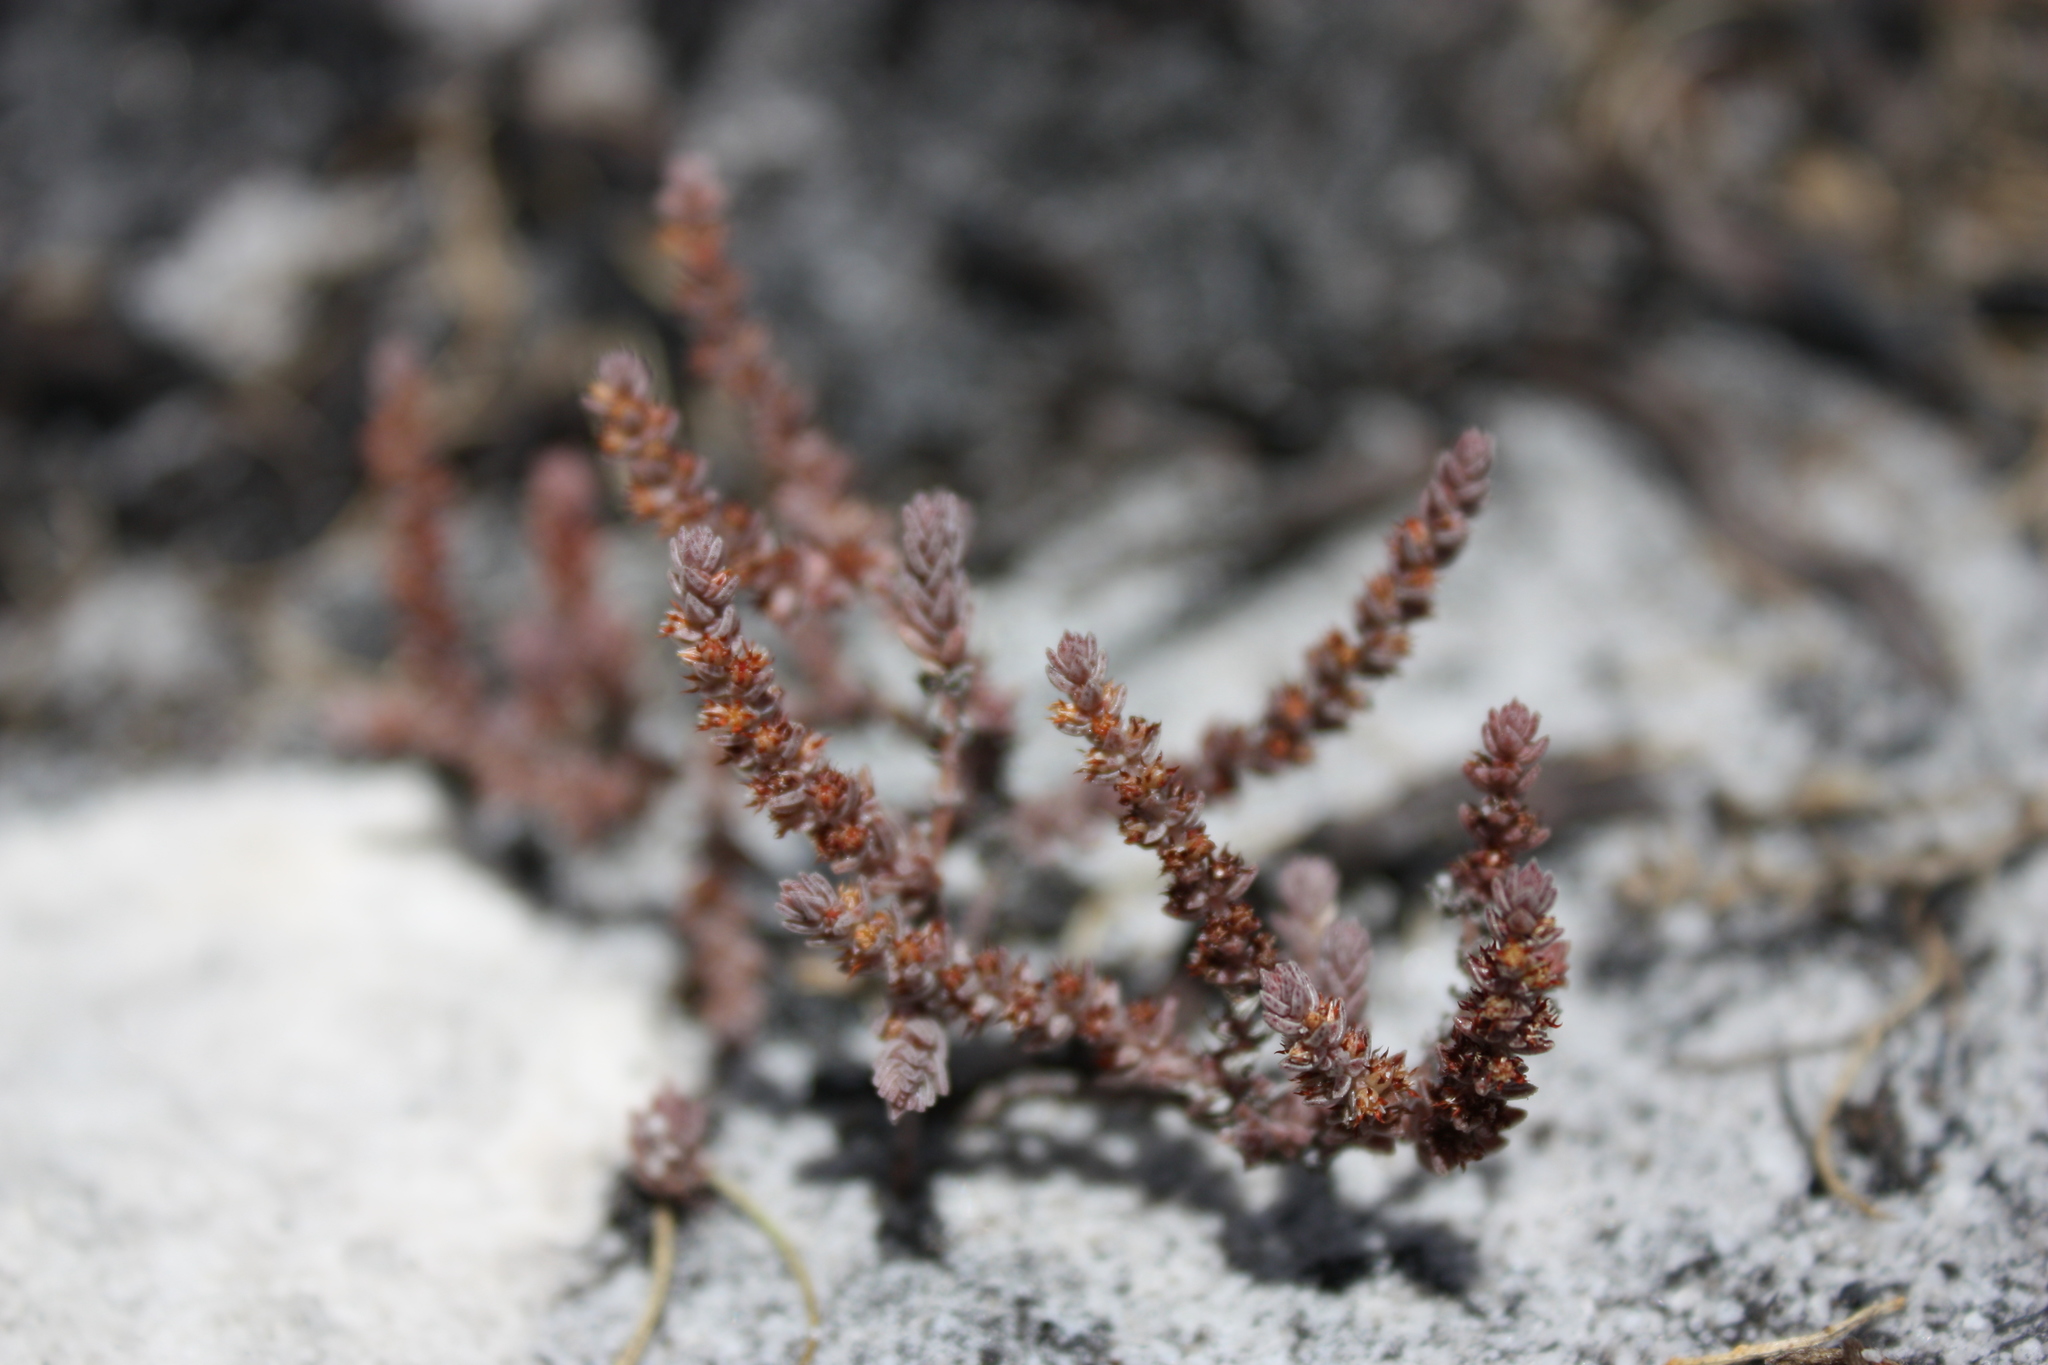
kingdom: Plantae
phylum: Tracheophyta
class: Magnoliopsida
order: Saxifragales
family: Crassulaceae
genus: Crassula
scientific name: Crassula lanceolata
